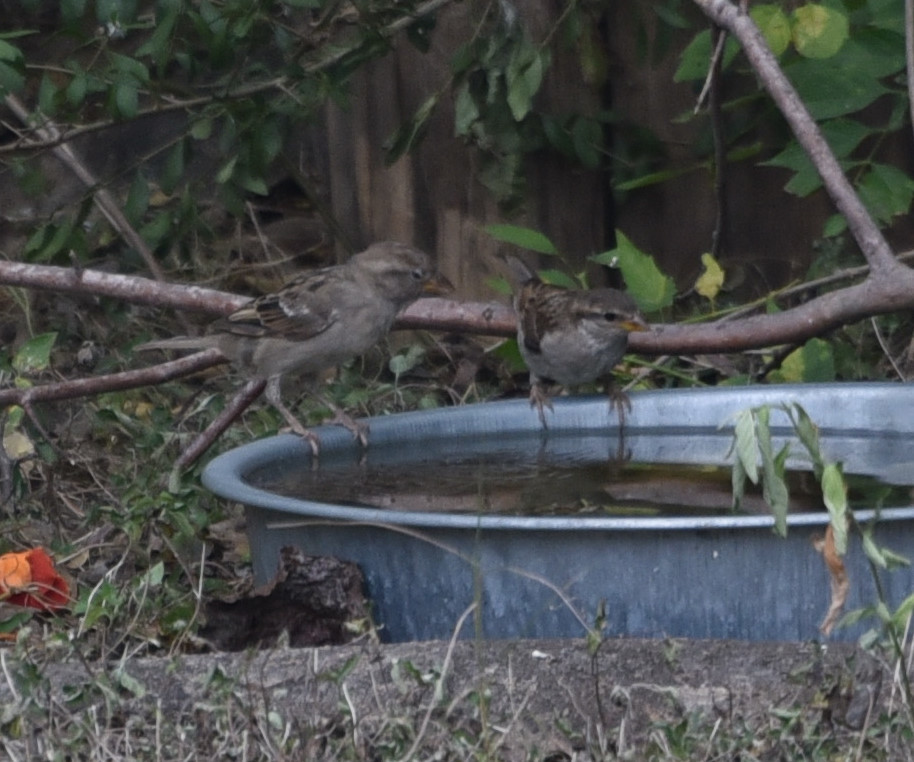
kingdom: Animalia
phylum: Chordata
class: Aves
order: Passeriformes
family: Passeridae
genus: Passer
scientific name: Passer domesticus
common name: House sparrow
